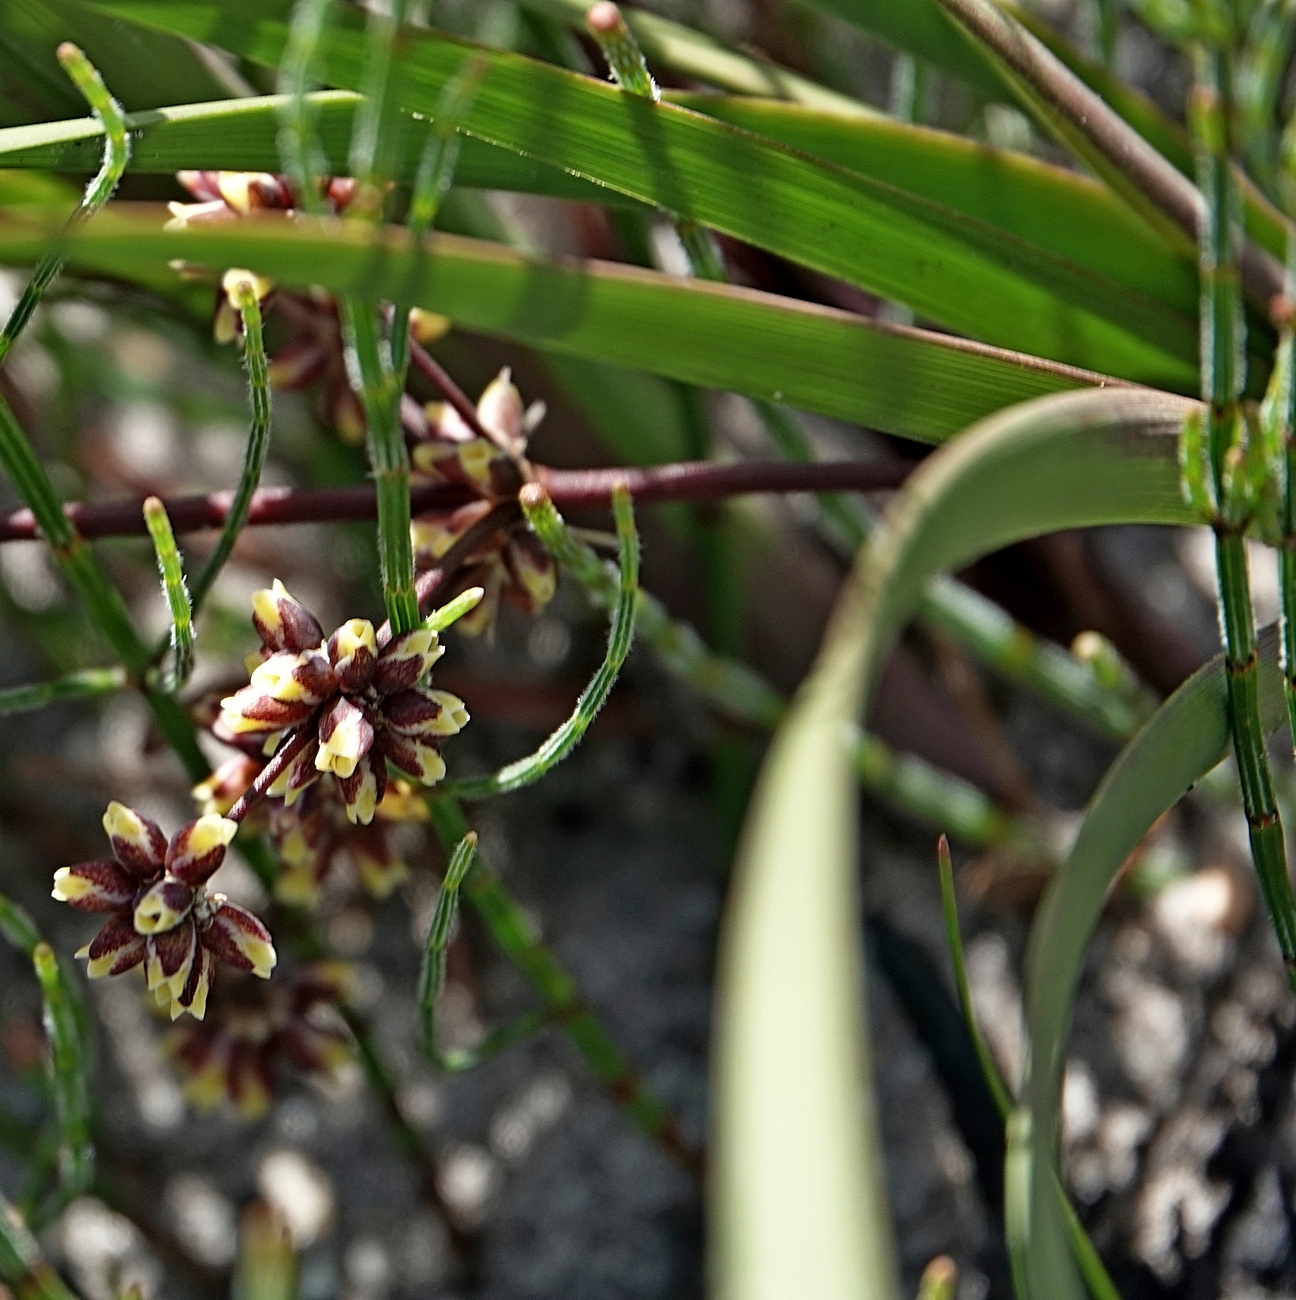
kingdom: Plantae
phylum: Tracheophyta
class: Liliopsida
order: Asparagales
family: Asparagaceae
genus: Lomandra
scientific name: Lomandra multiflora
